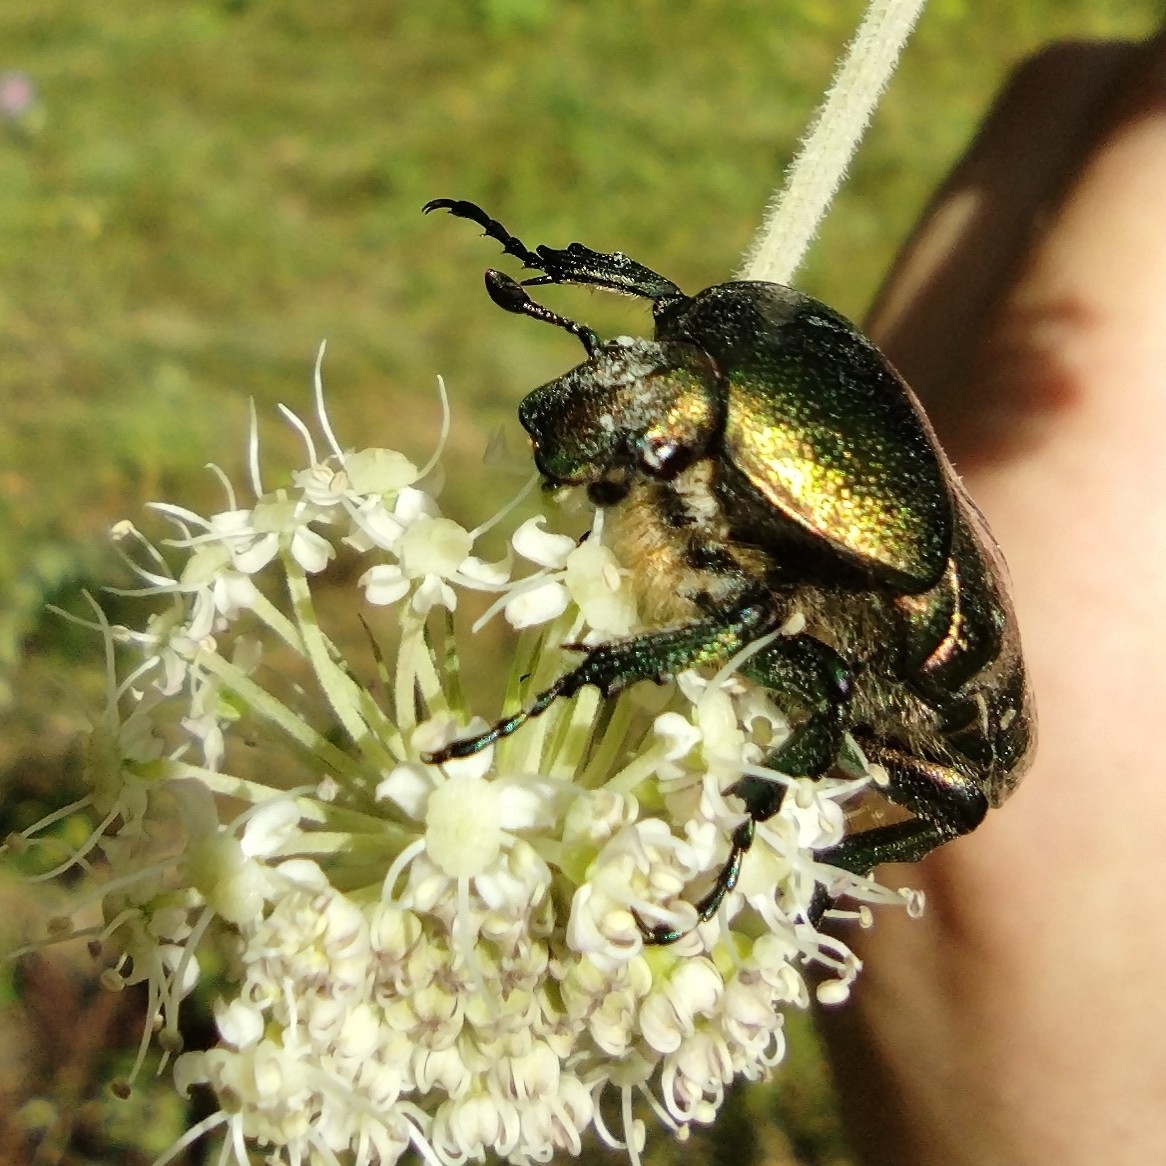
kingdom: Animalia
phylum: Arthropoda
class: Insecta
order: Coleoptera
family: Scarabaeidae
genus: Cetonia
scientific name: Cetonia aurata
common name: Rose chafer
